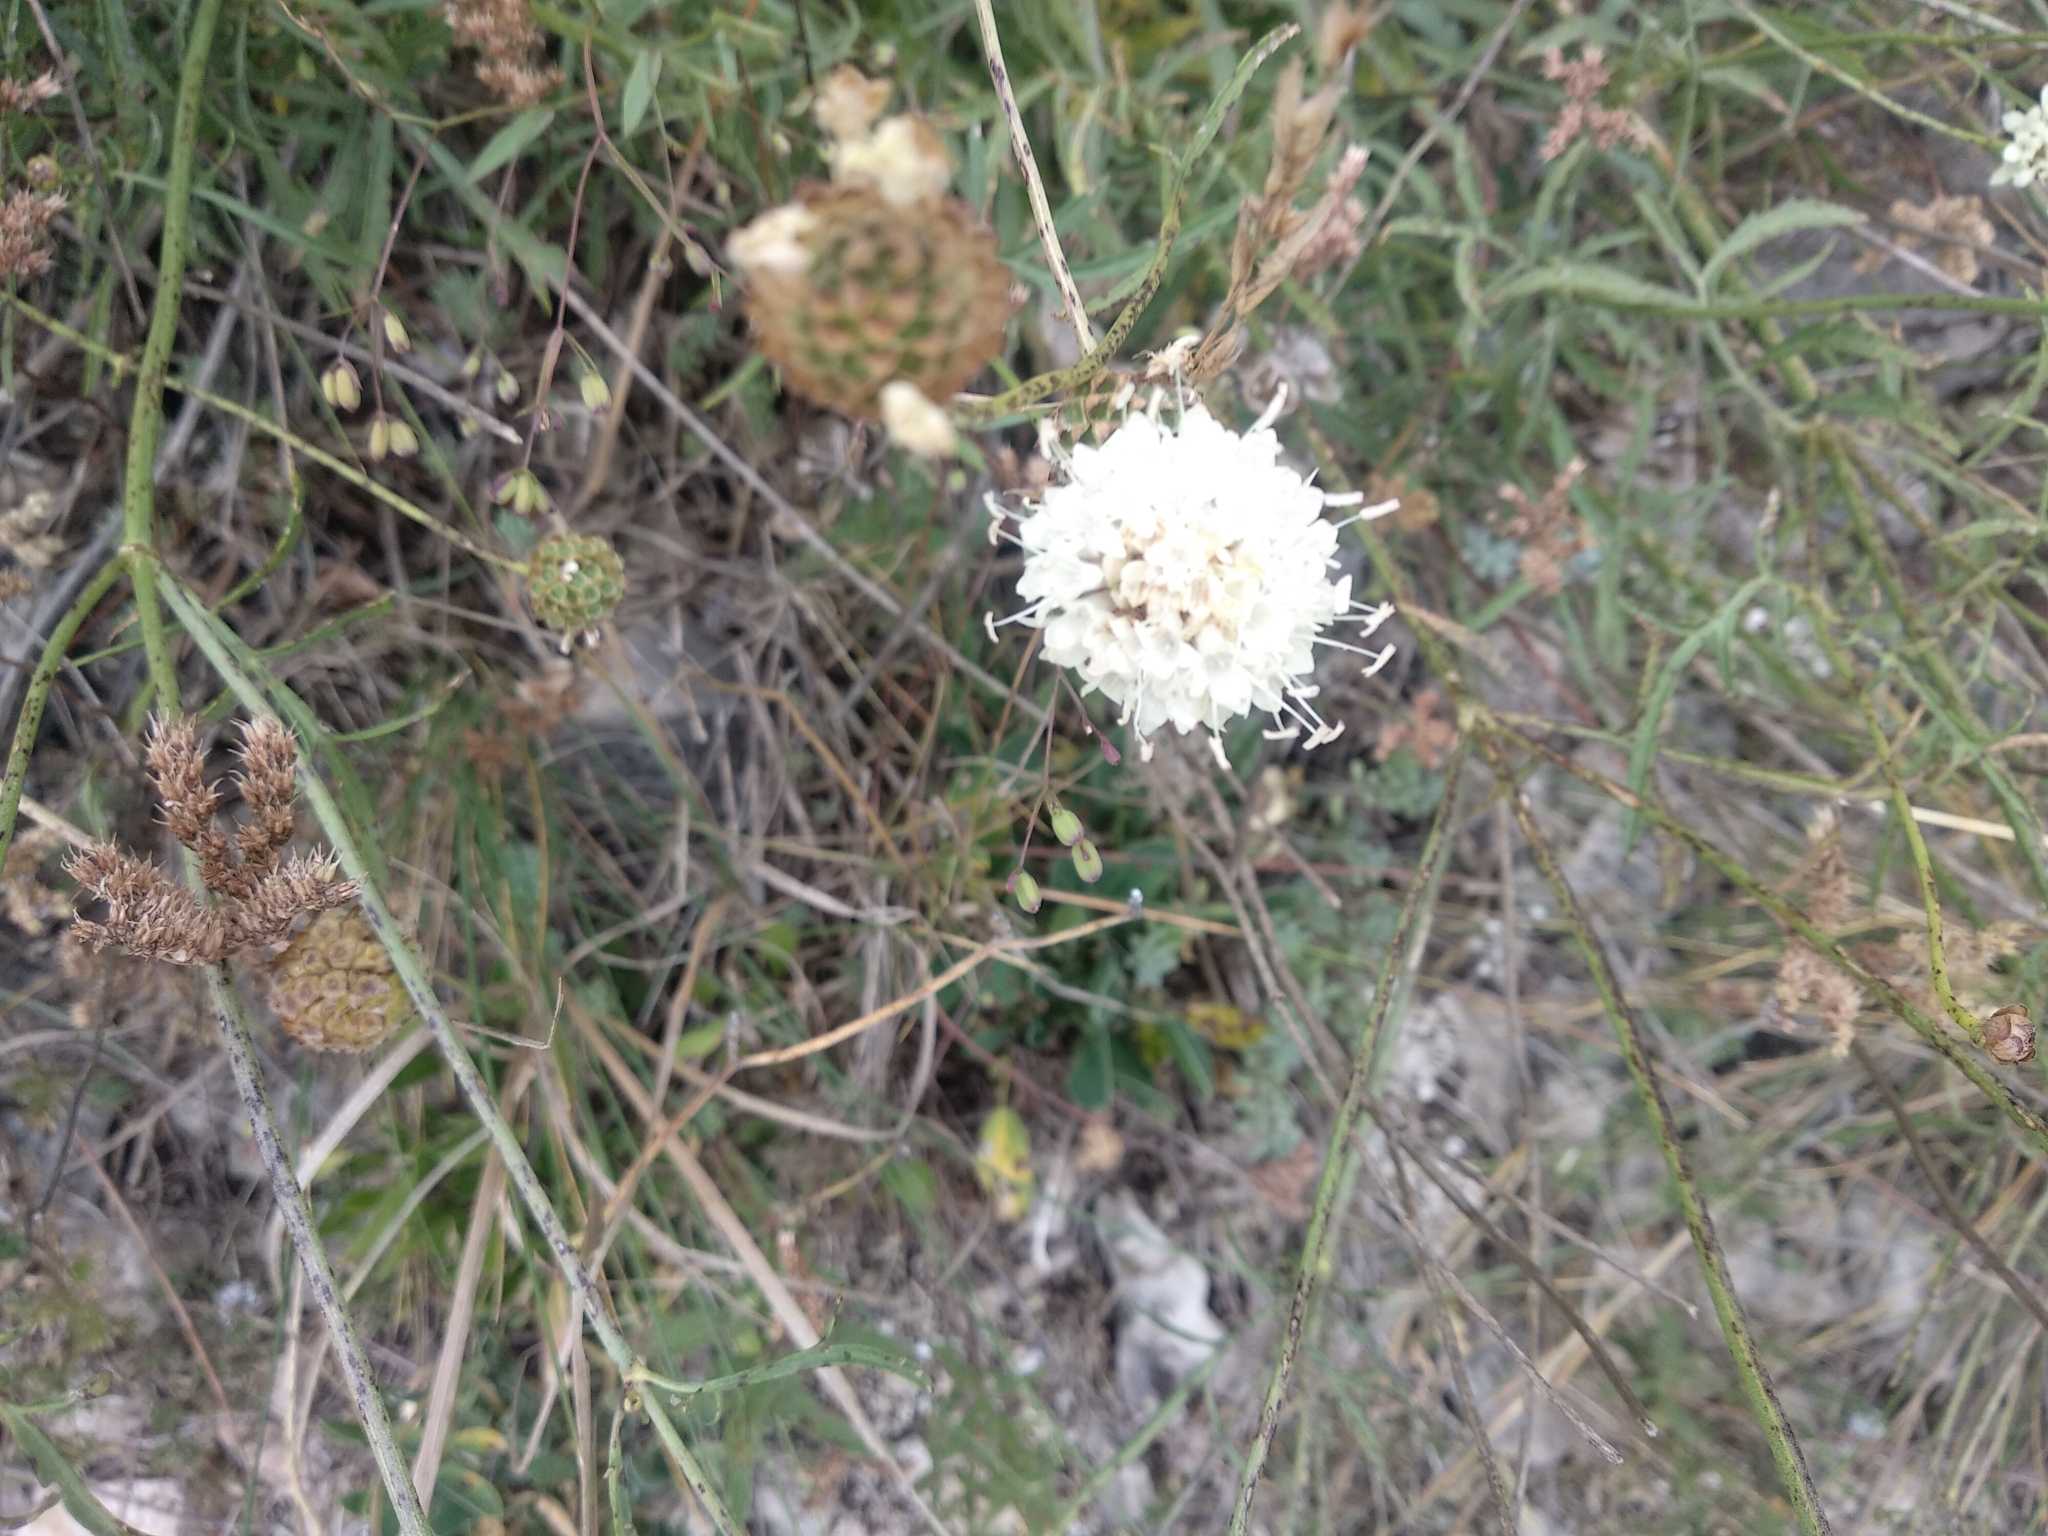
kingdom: Plantae
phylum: Tracheophyta
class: Magnoliopsida
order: Dipsacales
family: Caprifoliaceae
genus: Cephalaria
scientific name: Cephalaria leucantha
